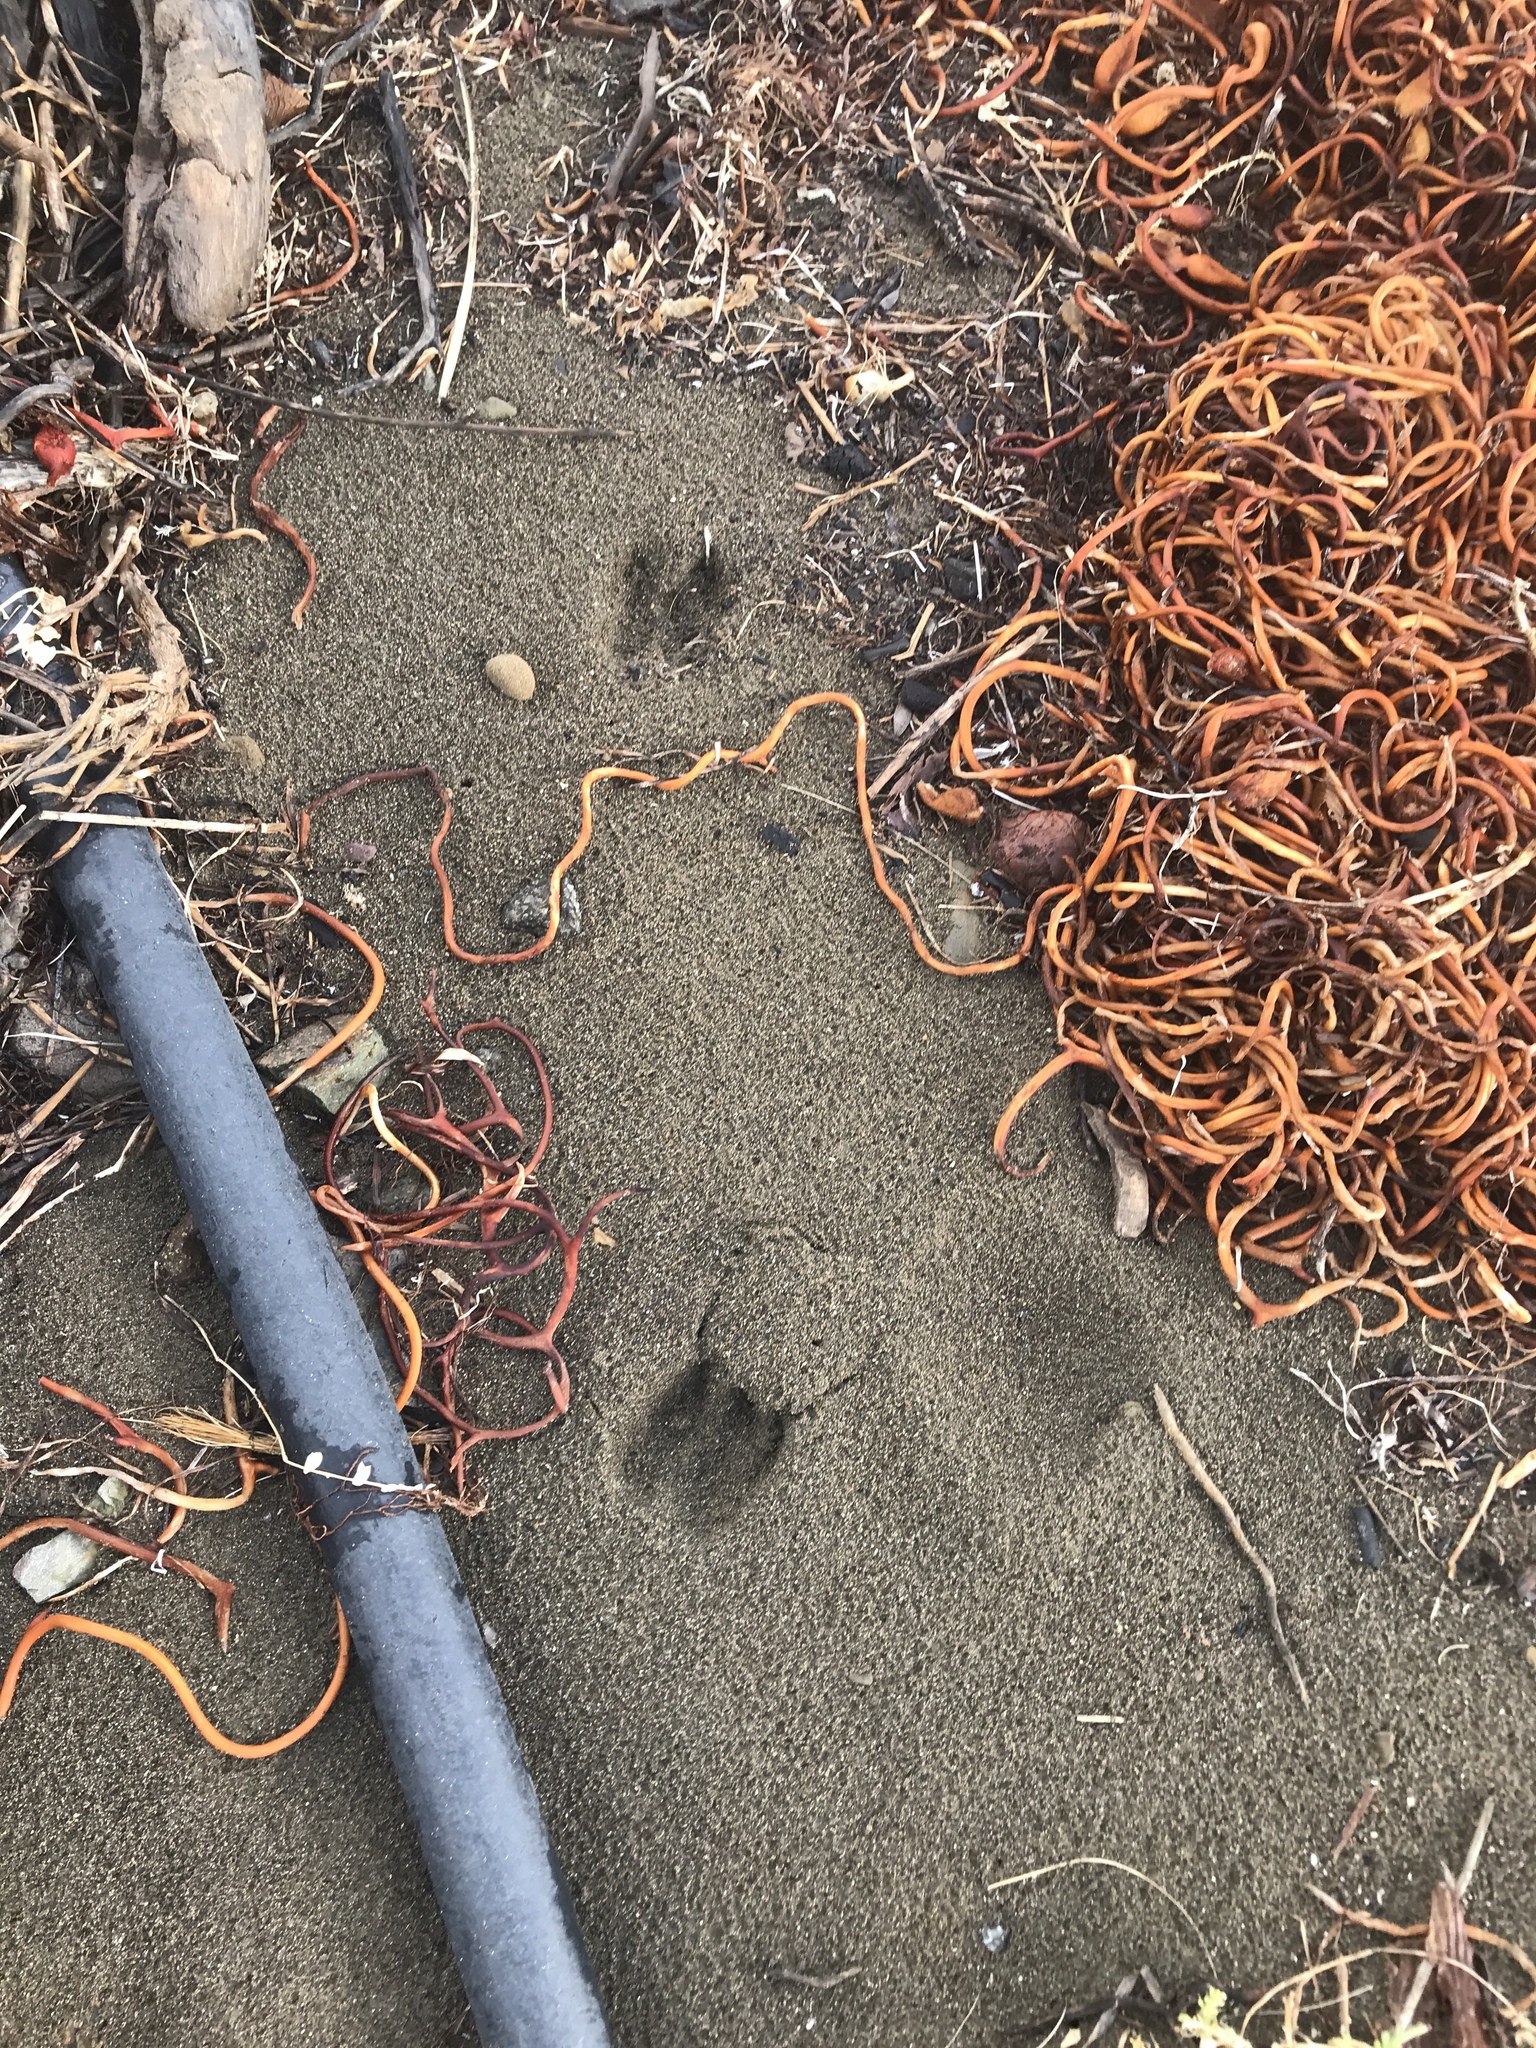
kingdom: Animalia
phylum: Chordata
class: Mammalia
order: Artiodactyla
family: Cervidae
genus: Odocoileus
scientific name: Odocoileus hemionus
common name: Mule deer
